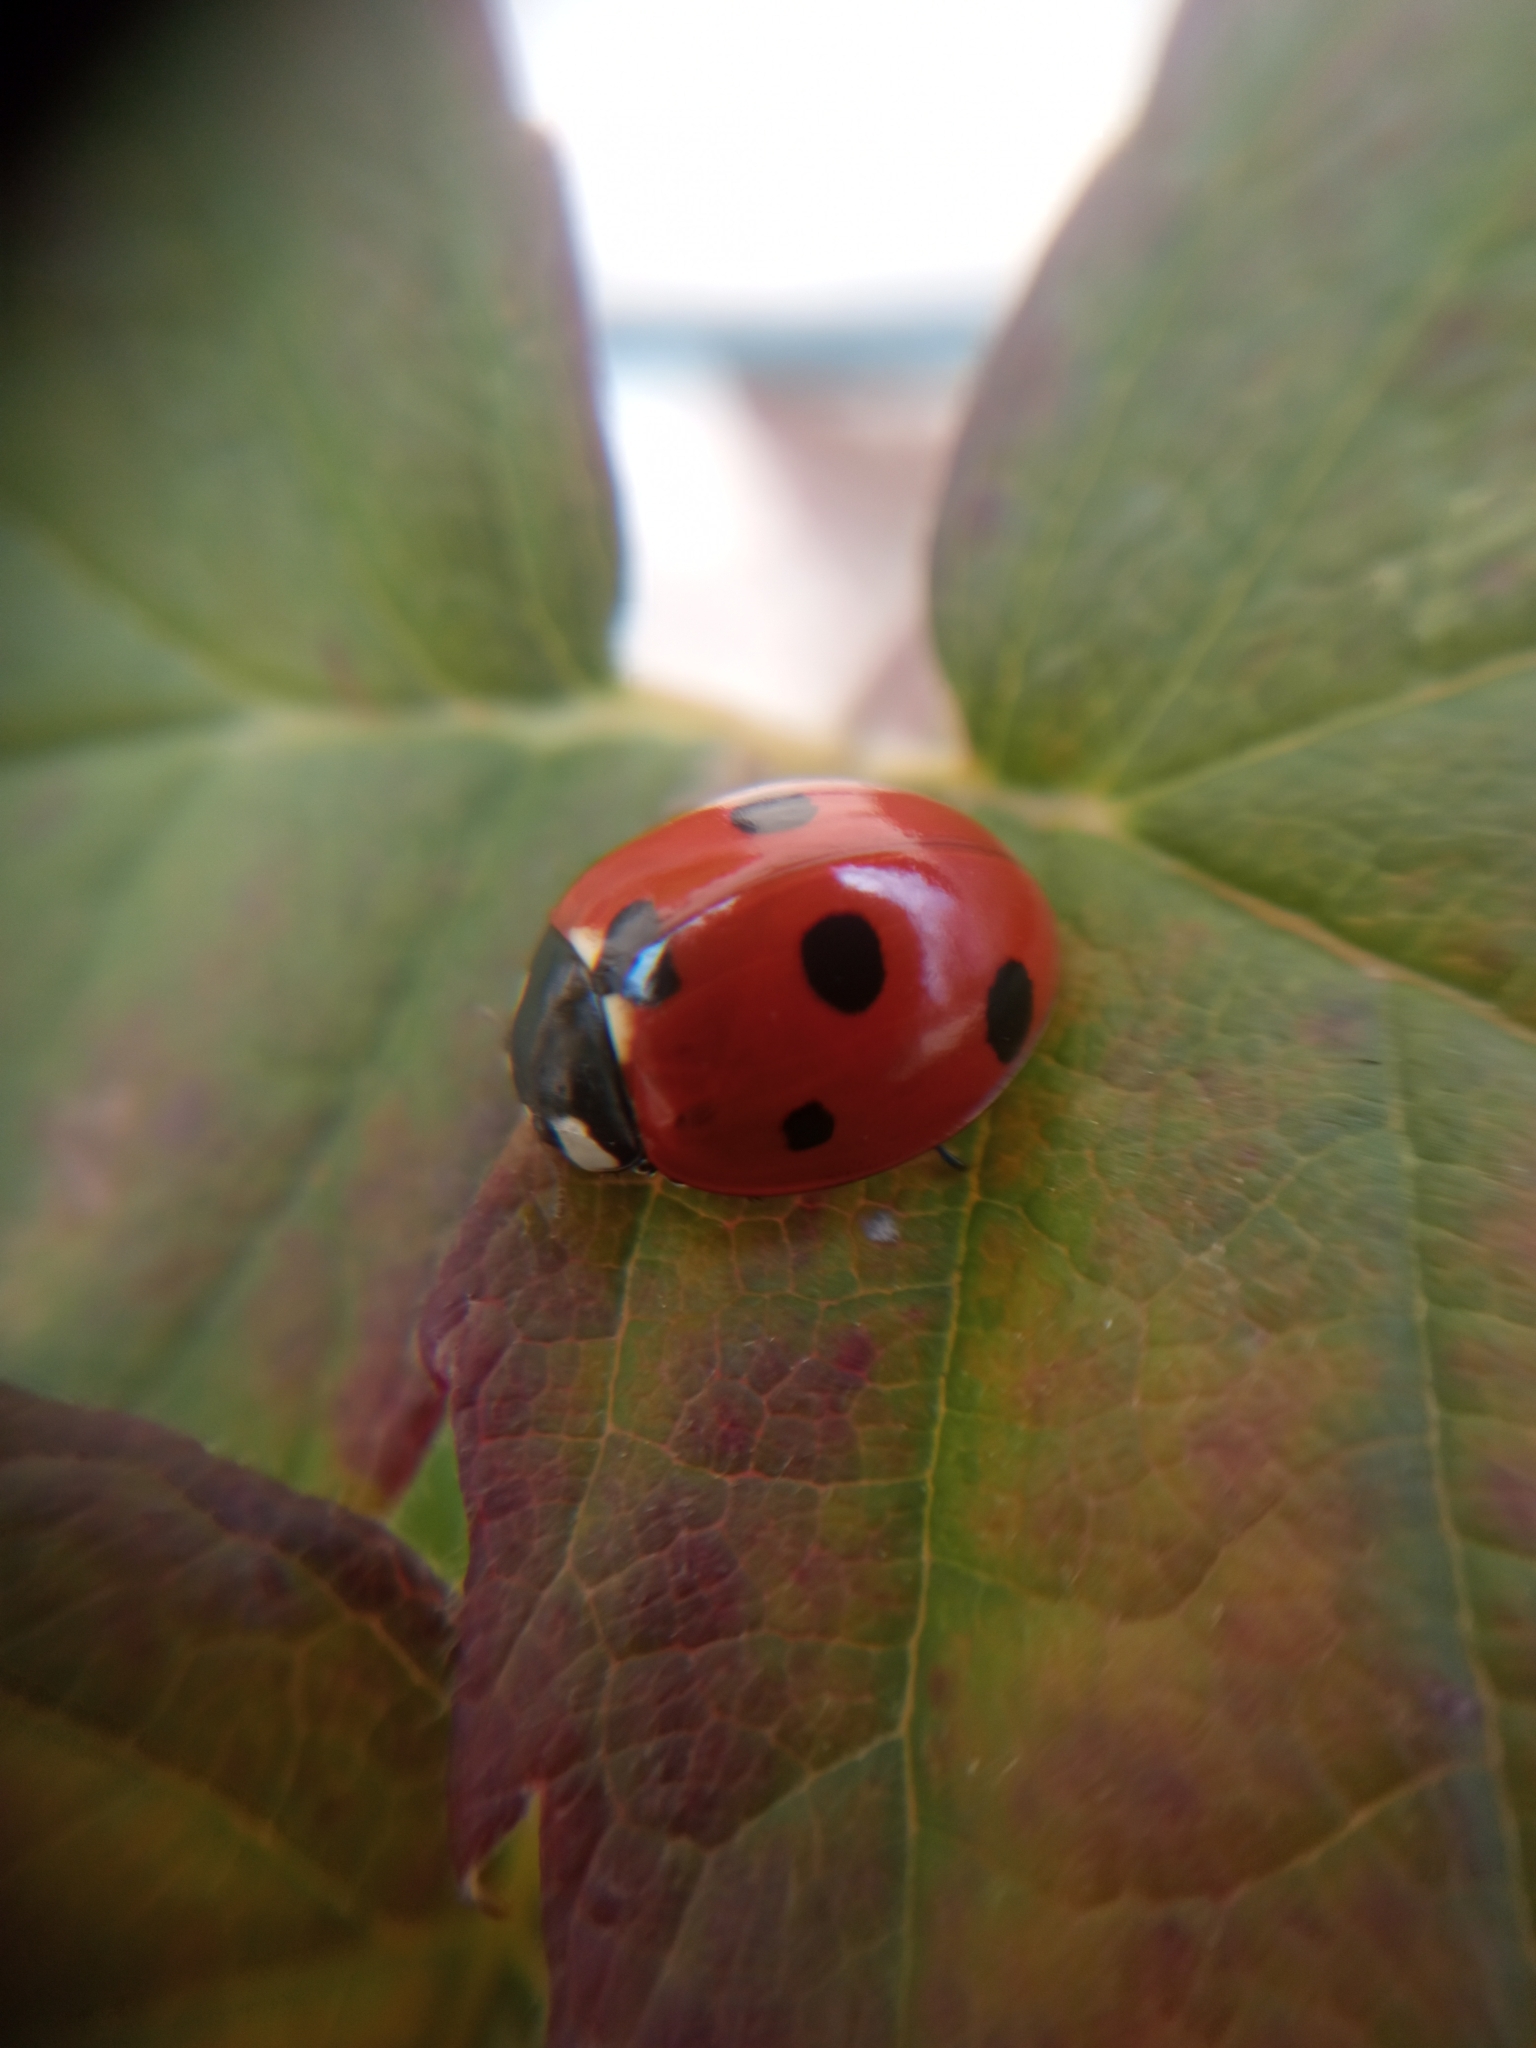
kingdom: Animalia
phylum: Arthropoda
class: Insecta
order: Coleoptera
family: Coccinellidae
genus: Coccinella
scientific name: Coccinella septempunctata
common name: Sevenspotted lady beetle
